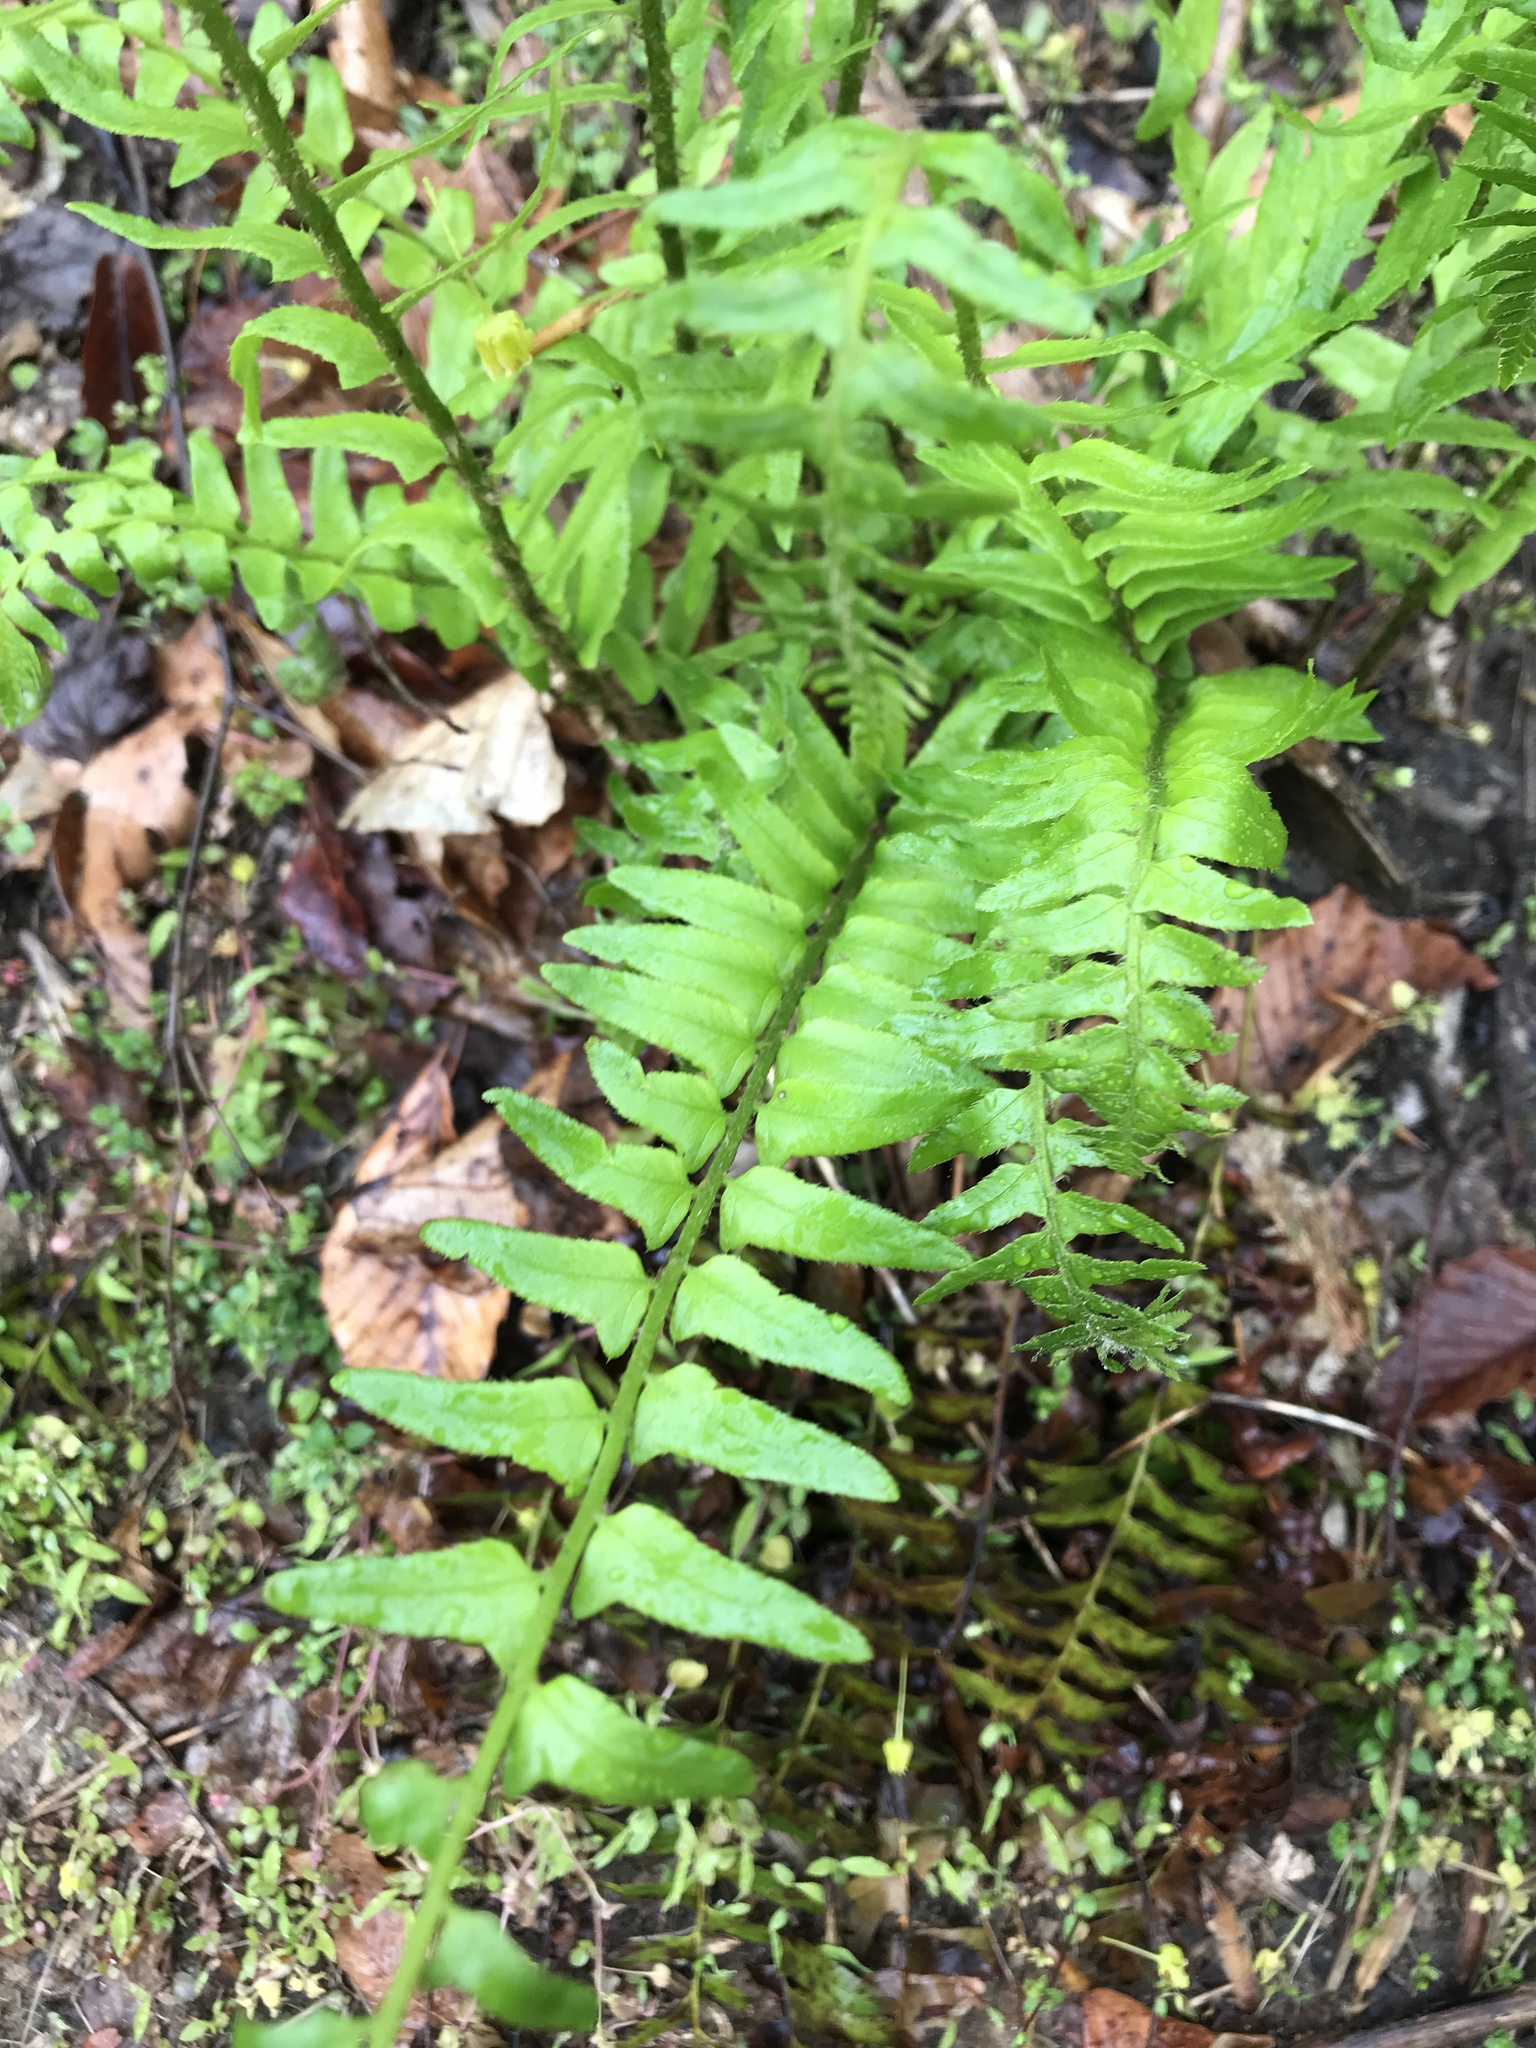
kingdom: Plantae
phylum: Tracheophyta
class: Polypodiopsida
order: Polypodiales
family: Dryopteridaceae
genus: Polystichum
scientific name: Polystichum acrostichoides
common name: Christmas fern
